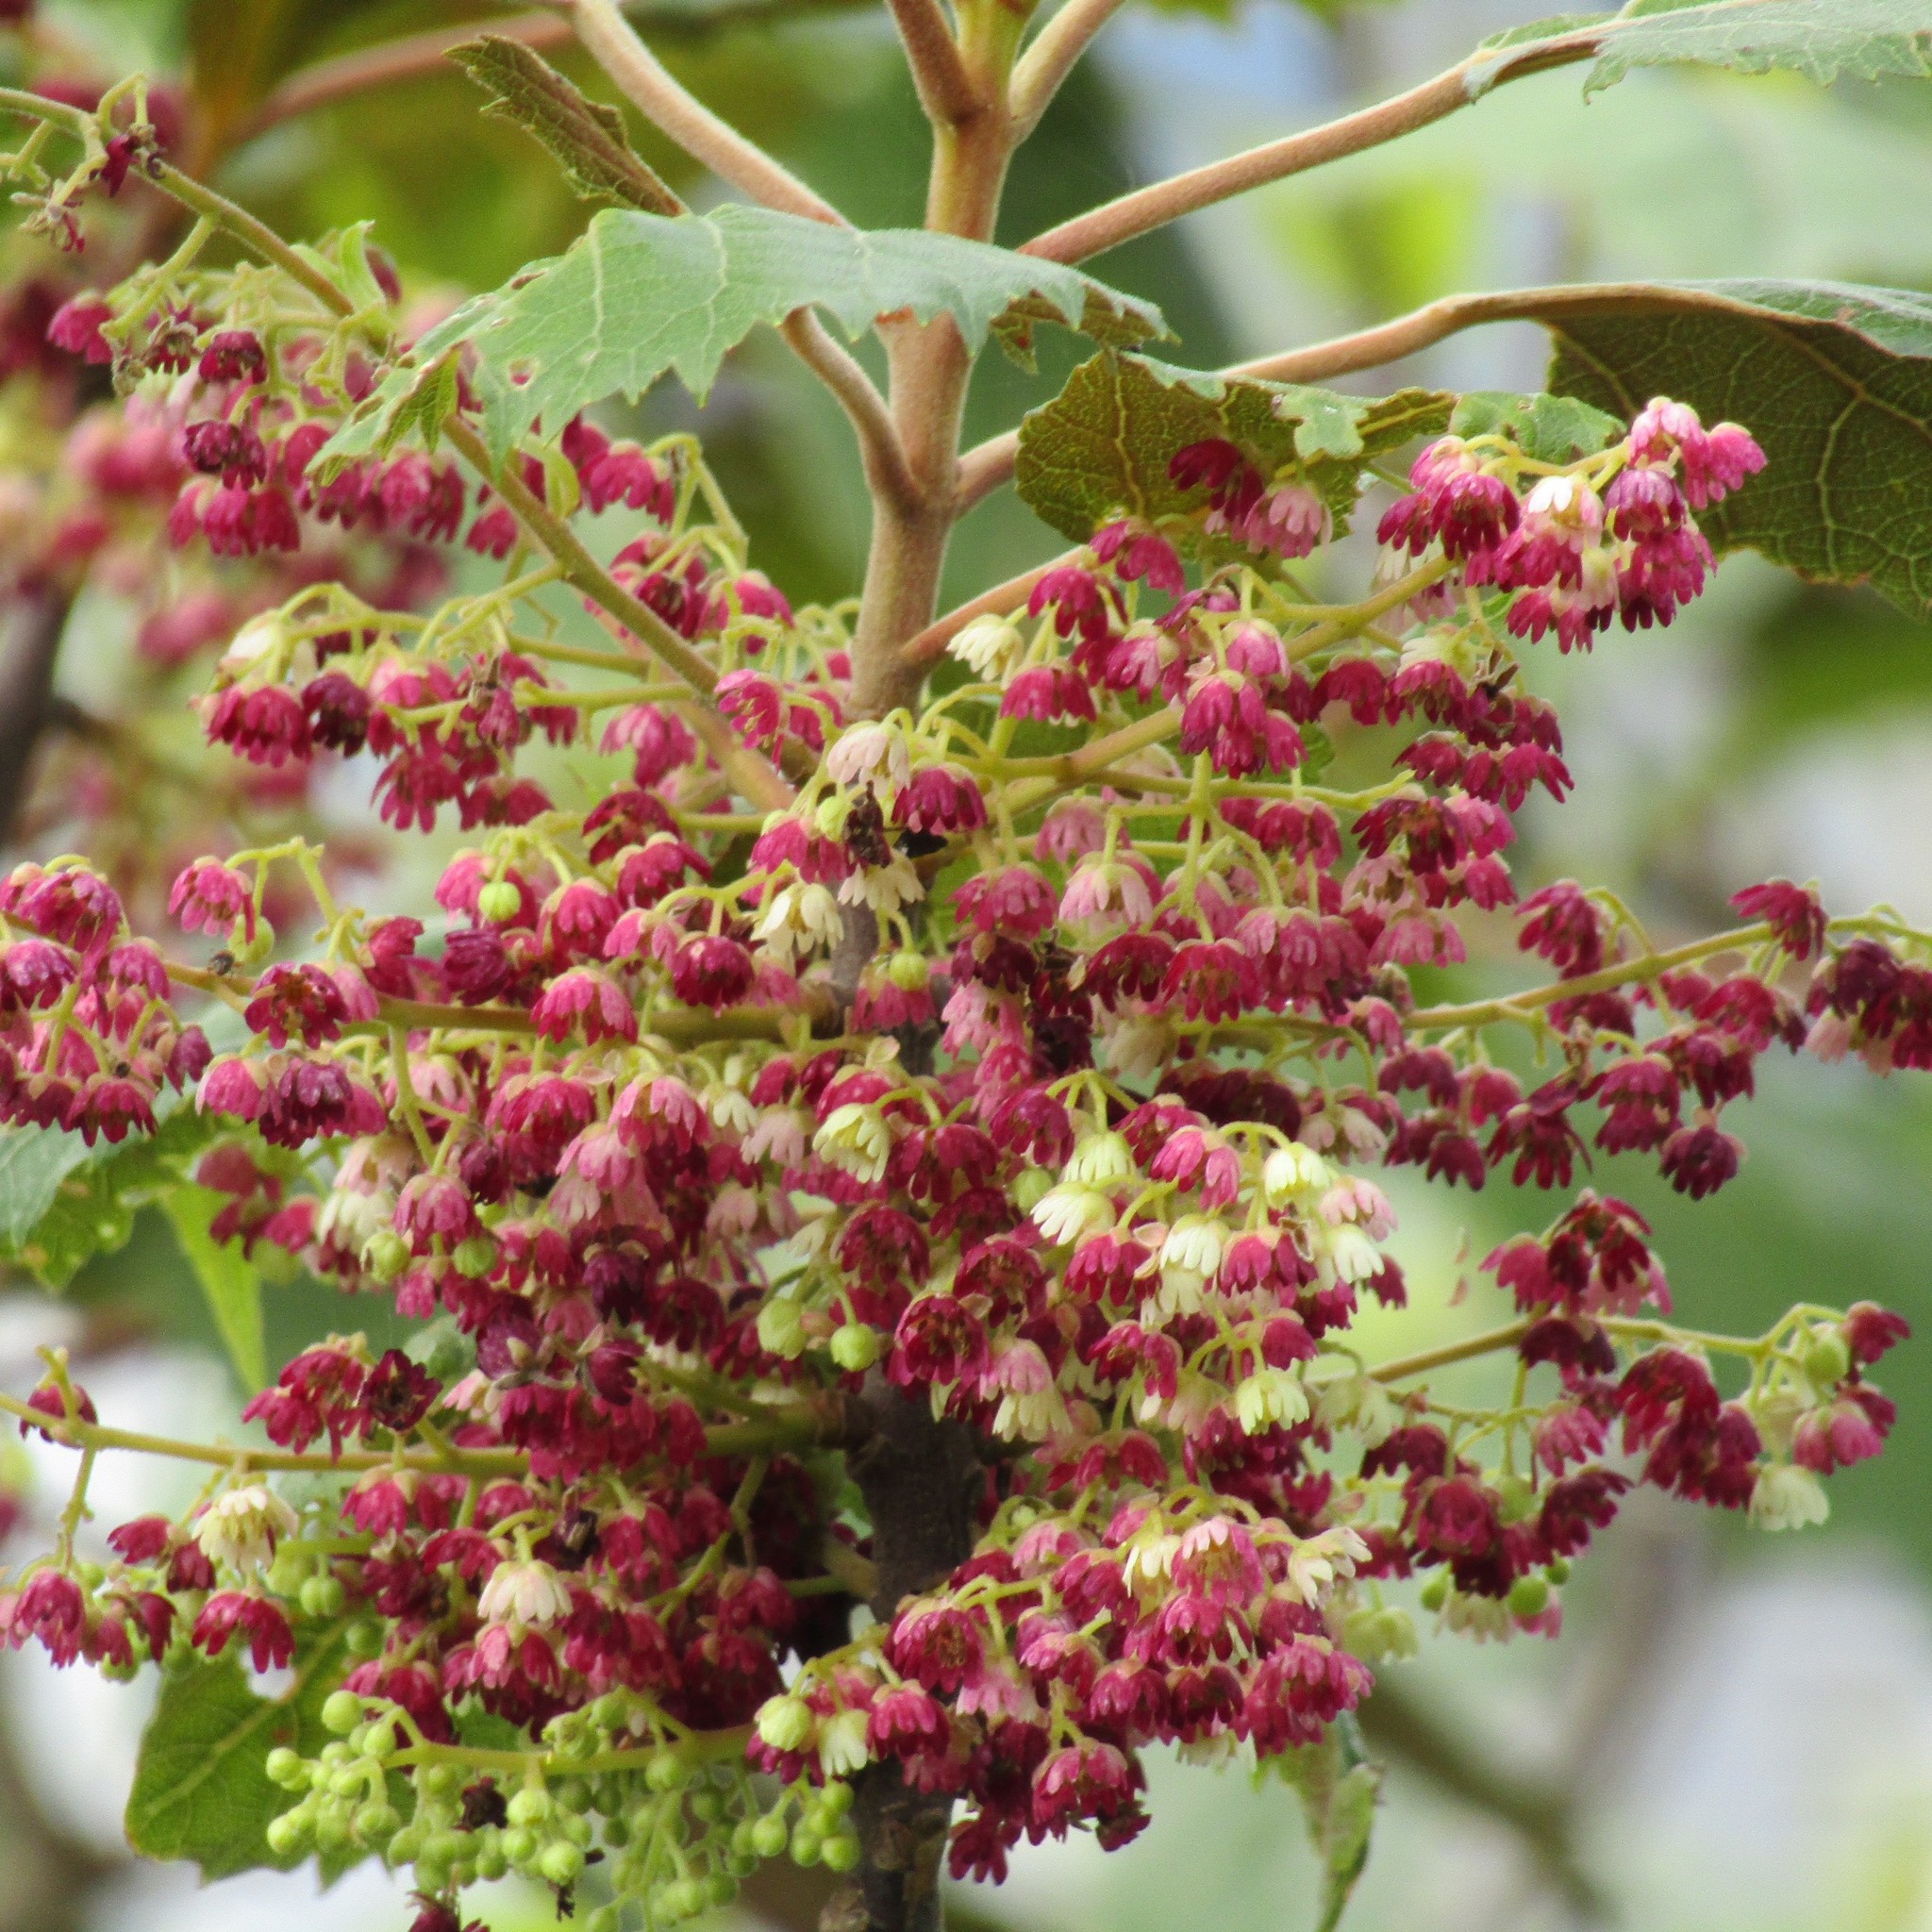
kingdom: Plantae
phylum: Tracheophyta
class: Magnoliopsida
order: Oxalidales
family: Elaeocarpaceae
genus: Aristotelia
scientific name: Aristotelia serrata
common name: New zealand wineberry
